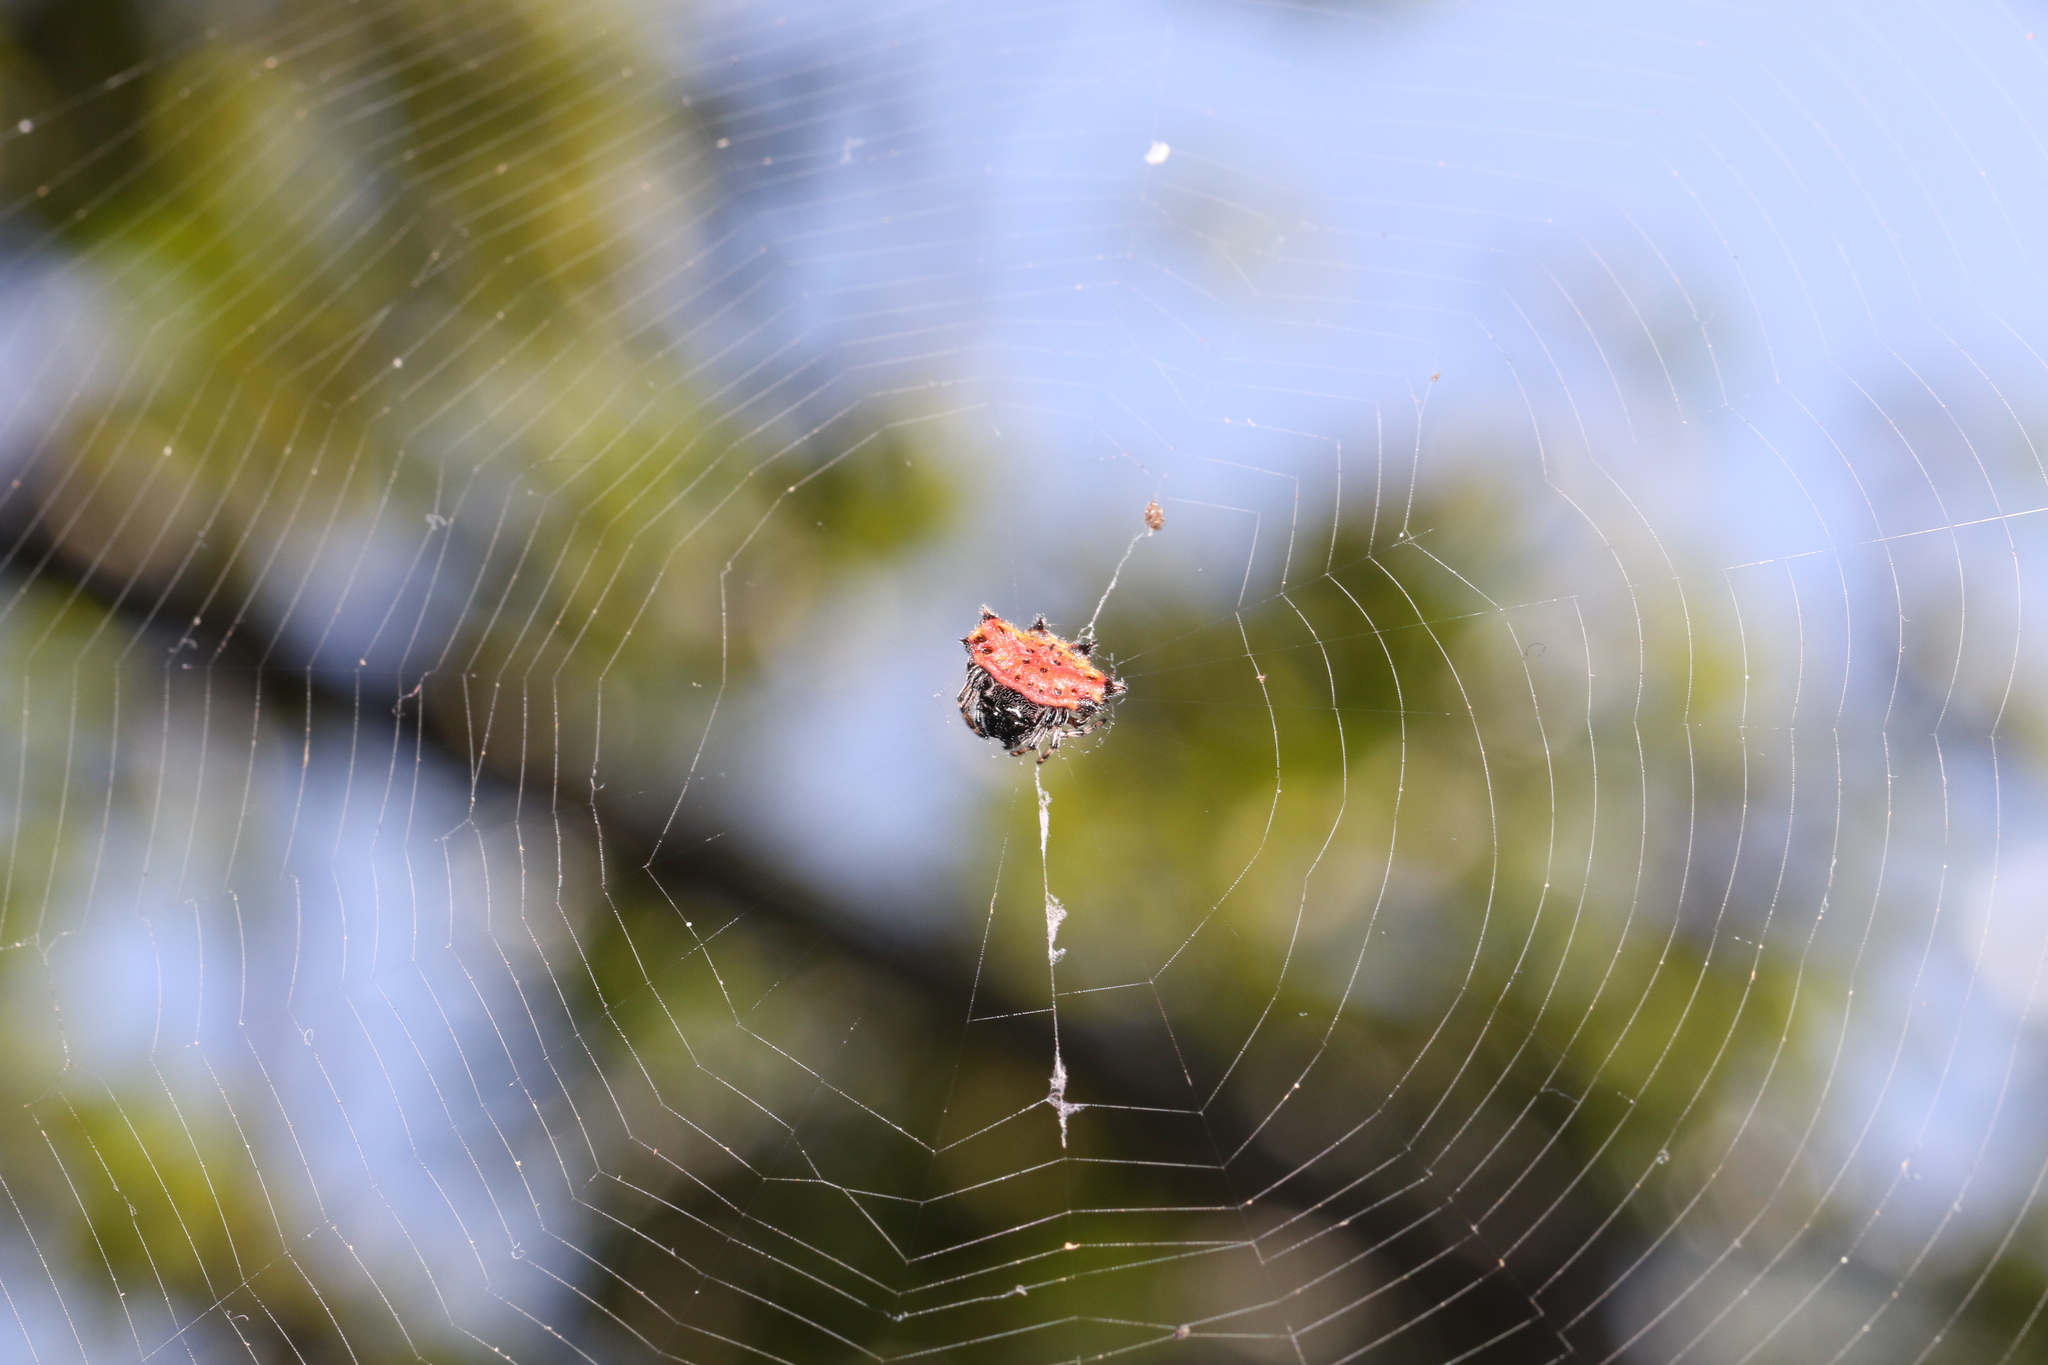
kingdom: Animalia
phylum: Arthropoda
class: Arachnida
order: Araneae
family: Araneidae
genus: Gasteracantha
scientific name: Gasteracantha cancriformis
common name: Orb weavers
